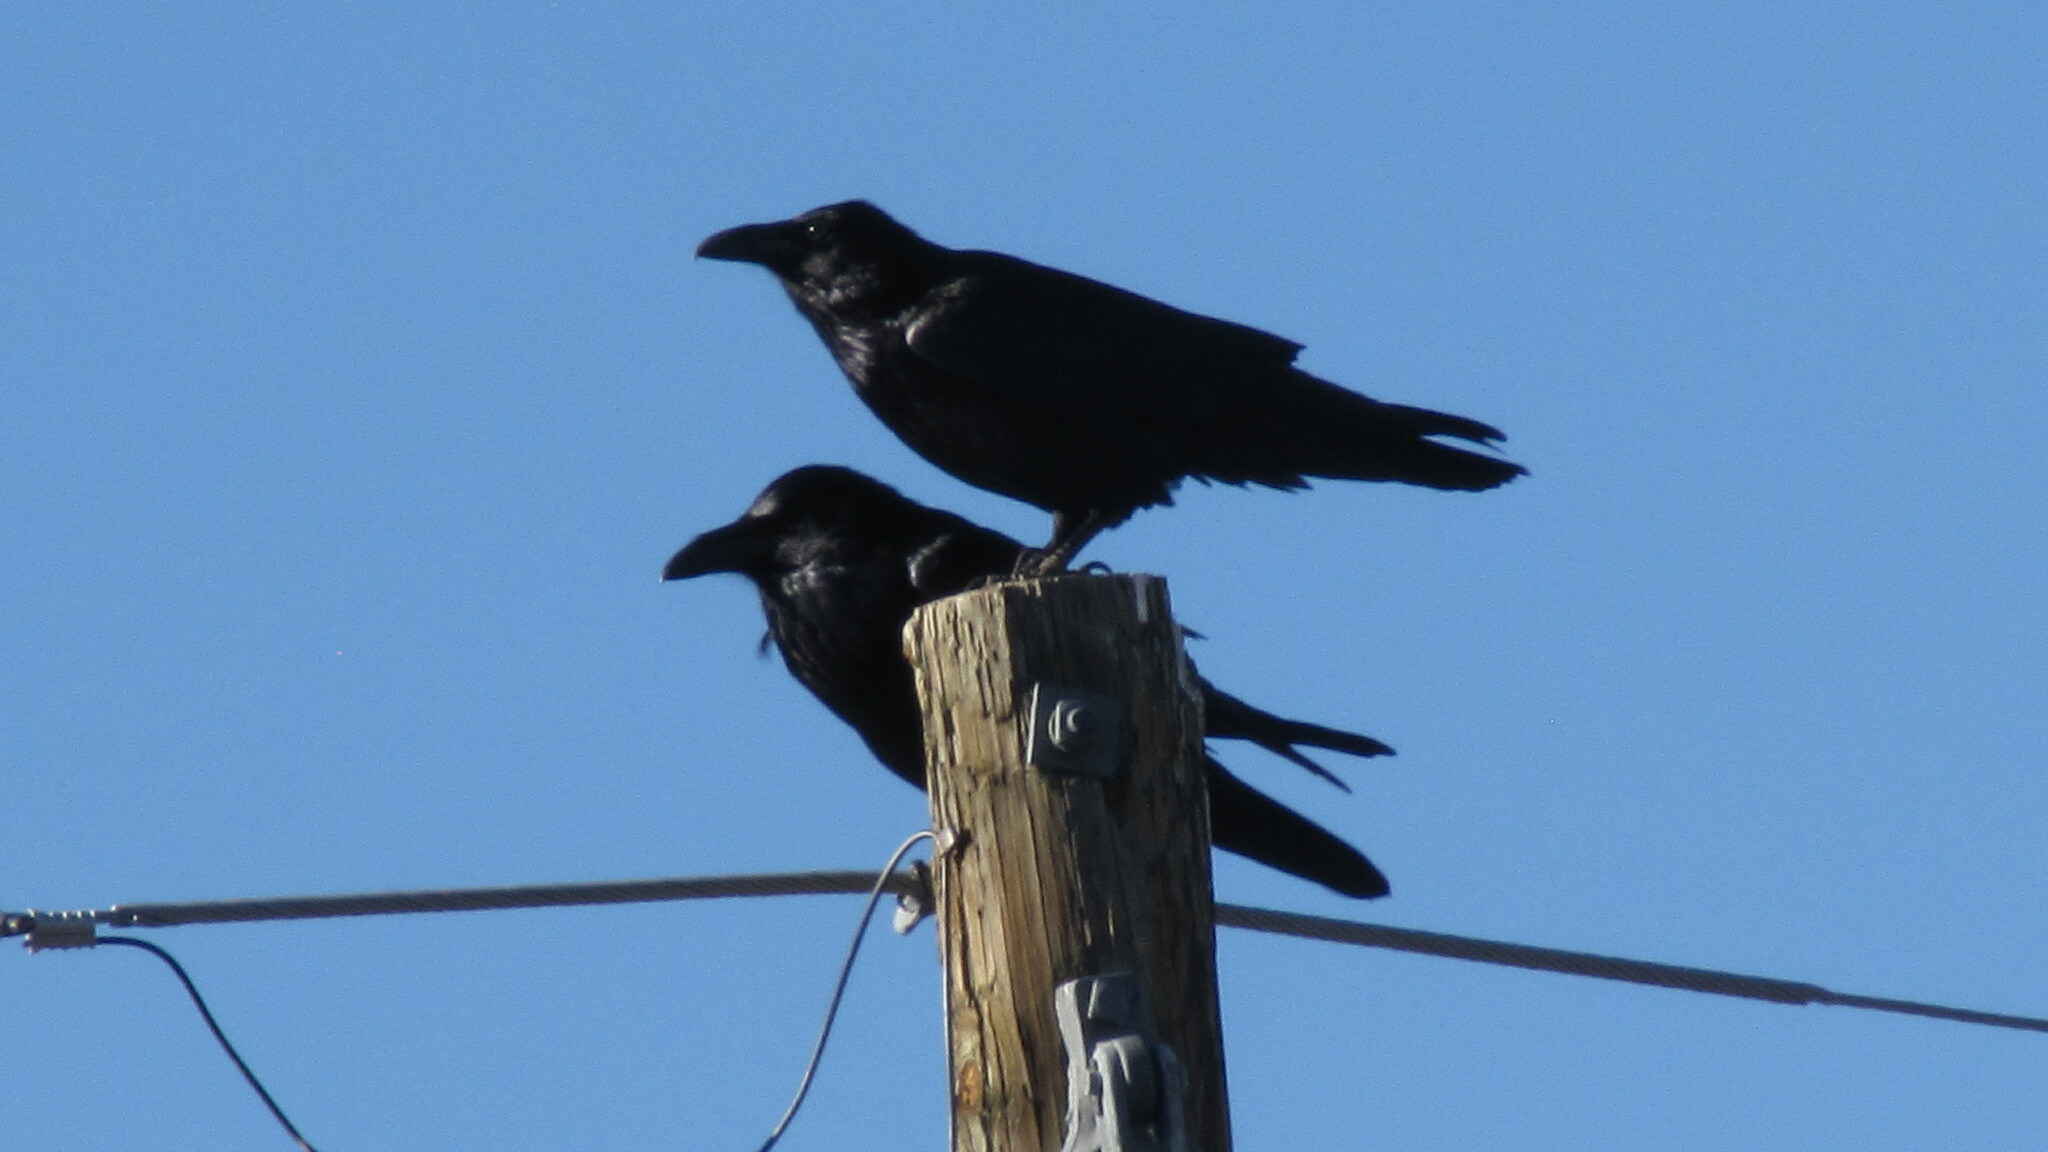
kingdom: Animalia
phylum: Chordata
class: Aves
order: Passeriformes
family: Corvidae
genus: Corvus
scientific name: Corvus cryptoleucus
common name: Chihuahuan raven
